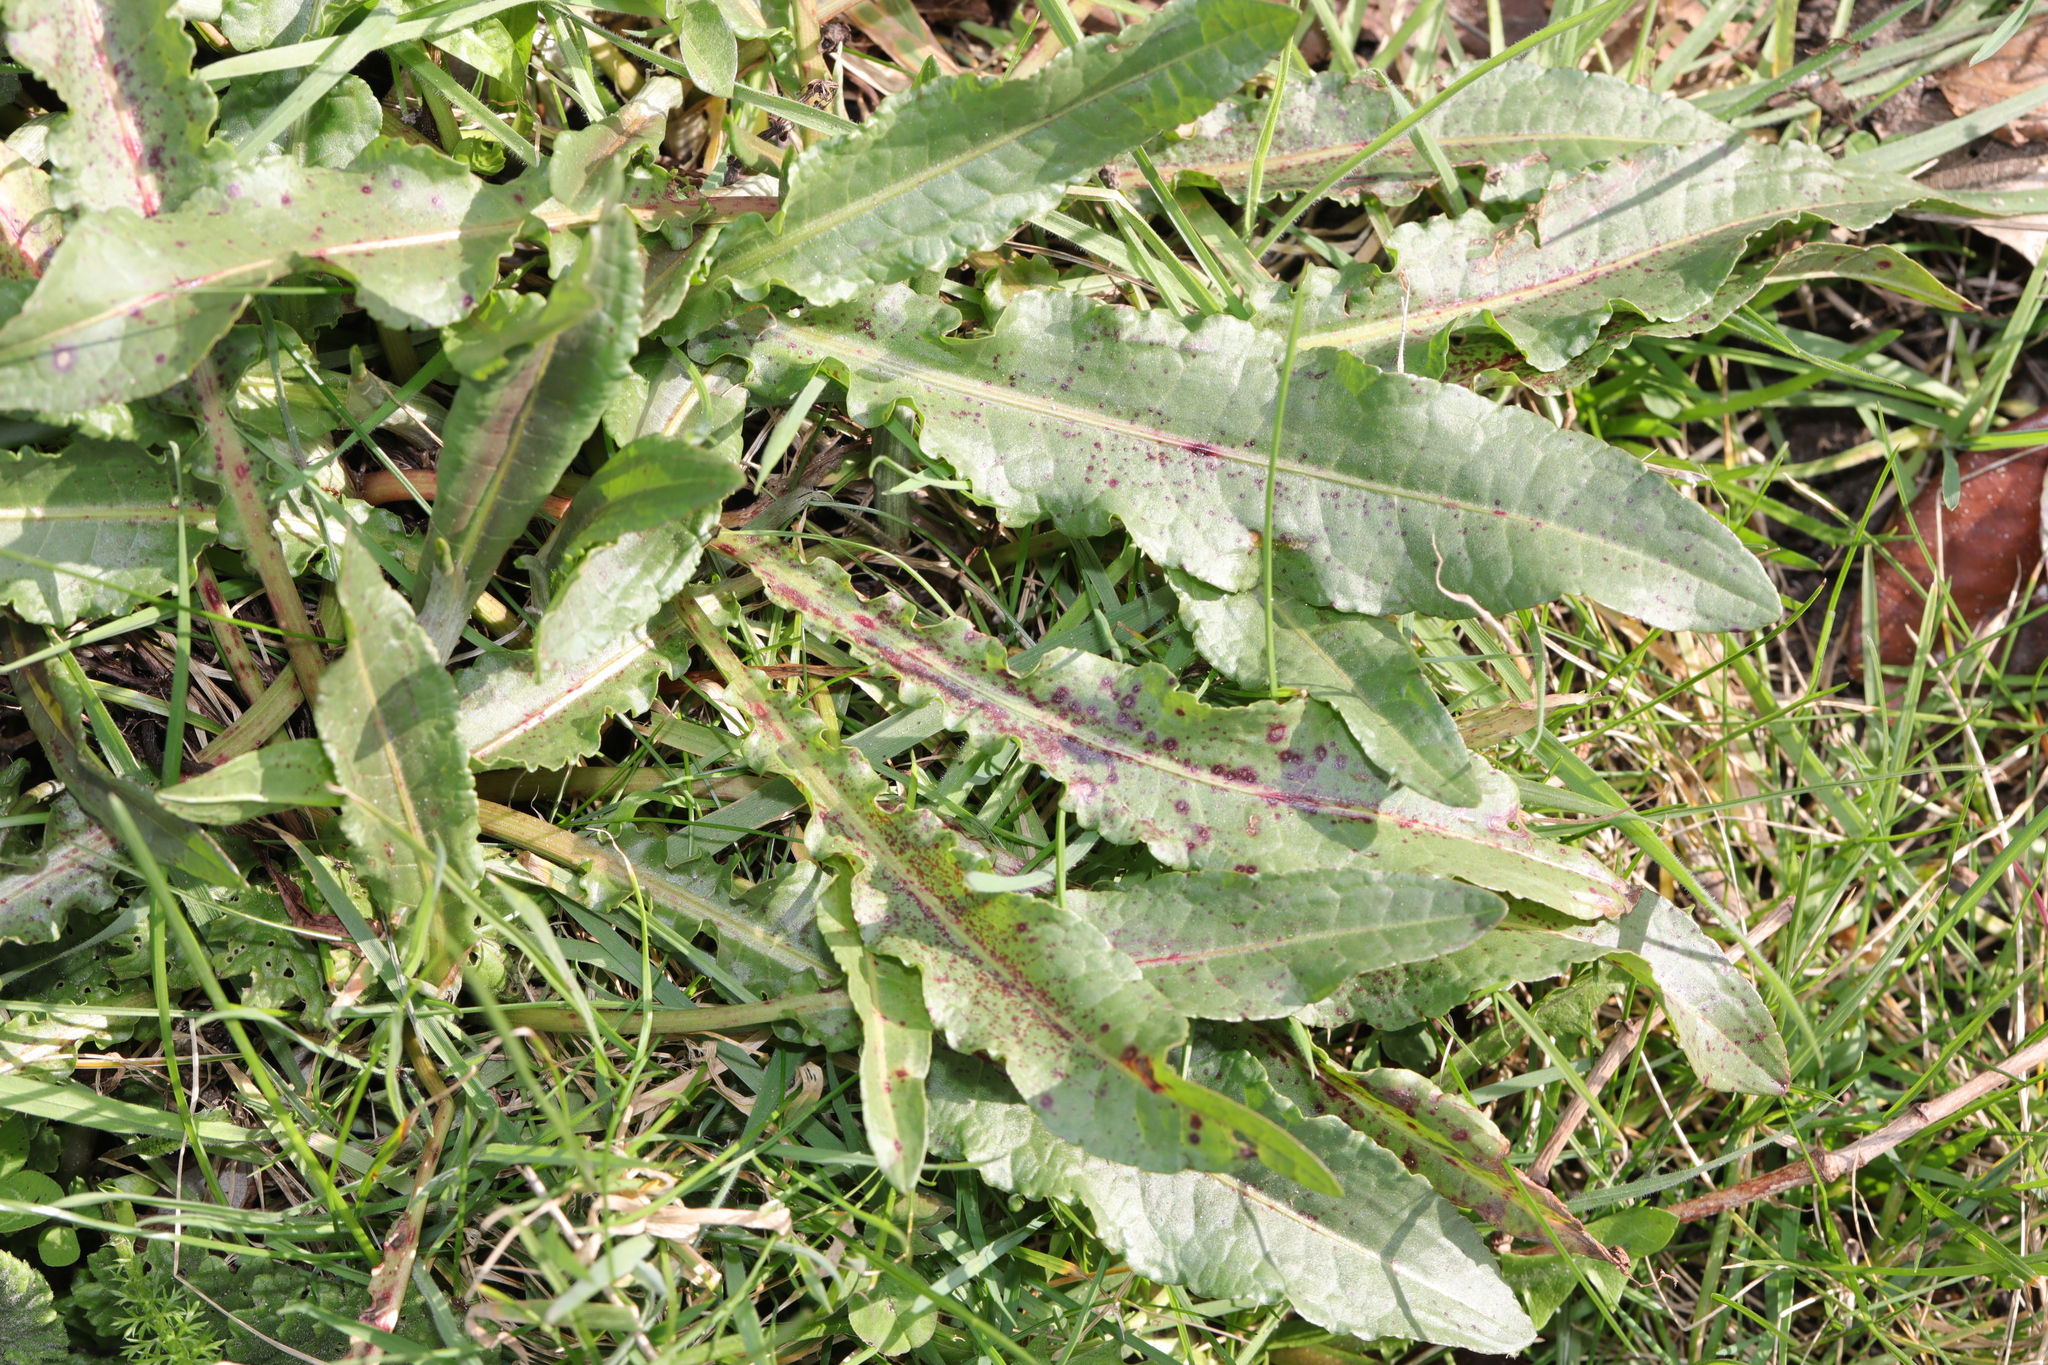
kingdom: Plantae
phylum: Tracheophyta
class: Magnoliopsida
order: Caryophyllales
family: Polygonaceae
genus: Rumex
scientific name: Rumex crispus
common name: Curled dock
